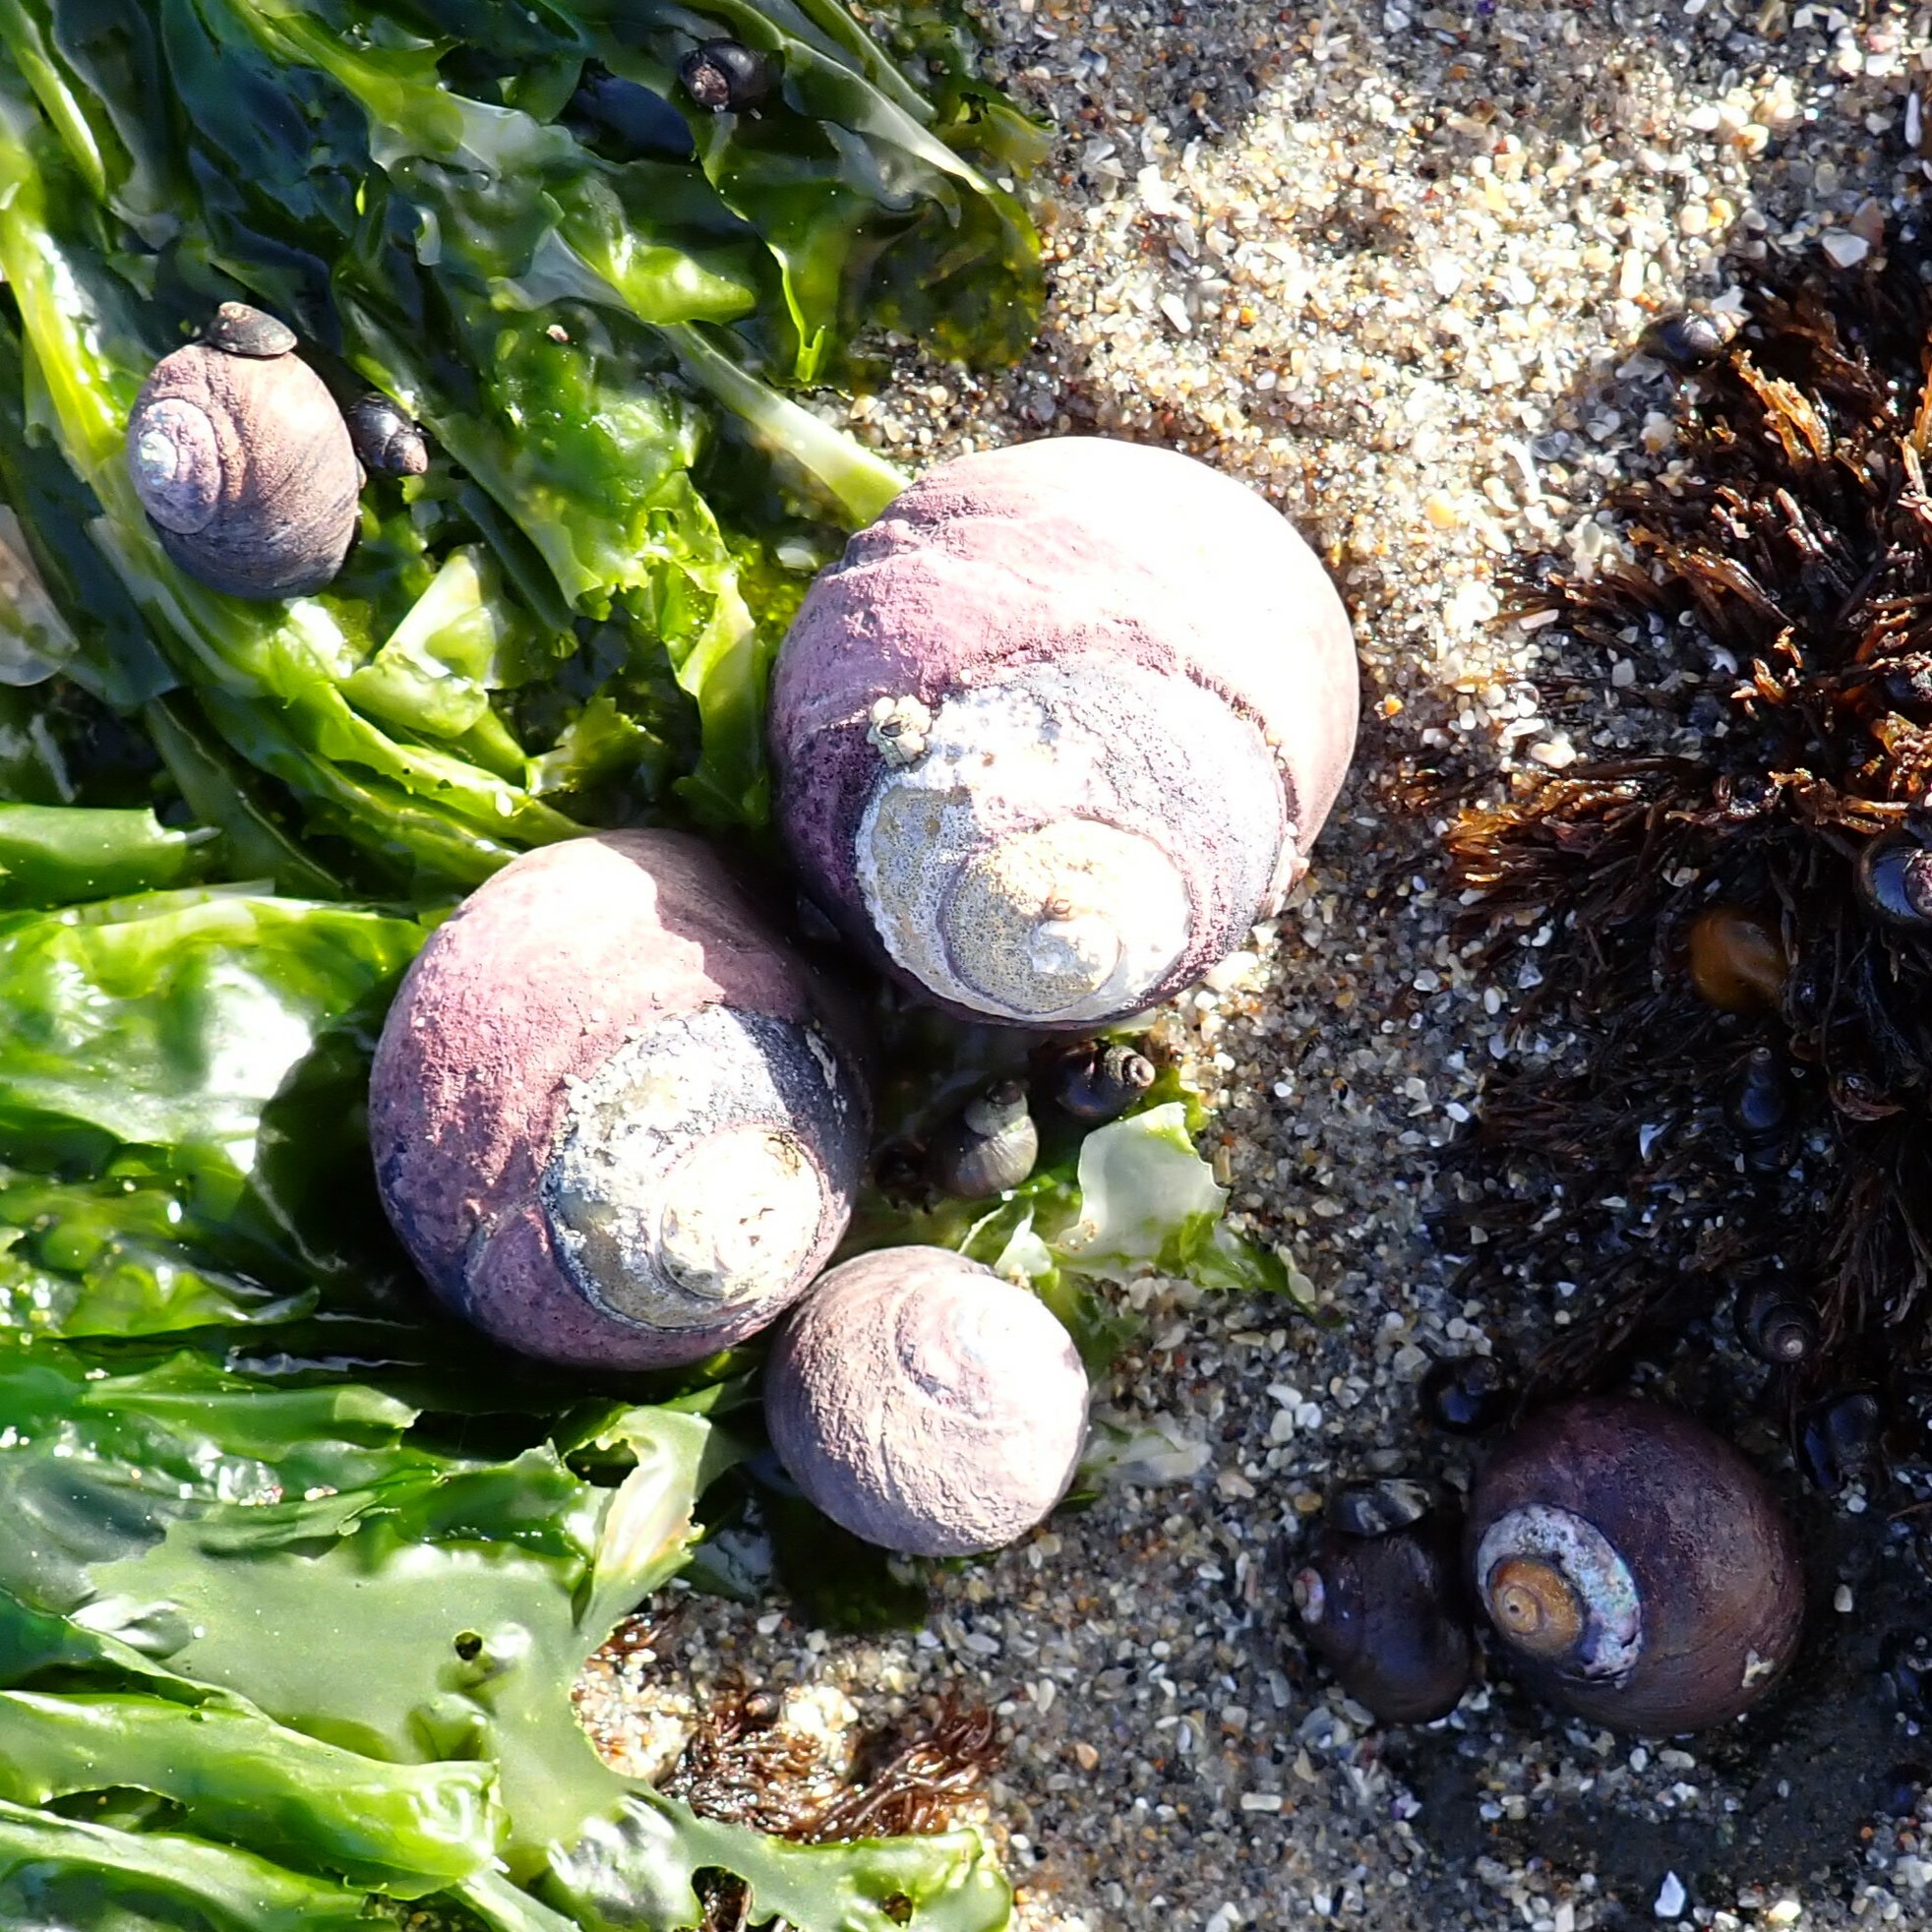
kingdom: Animalia
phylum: Mollusca
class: Gastropoda
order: Trochida
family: Tegulidae
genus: Tegula
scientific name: Tegula funebralis
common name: Black tegula
